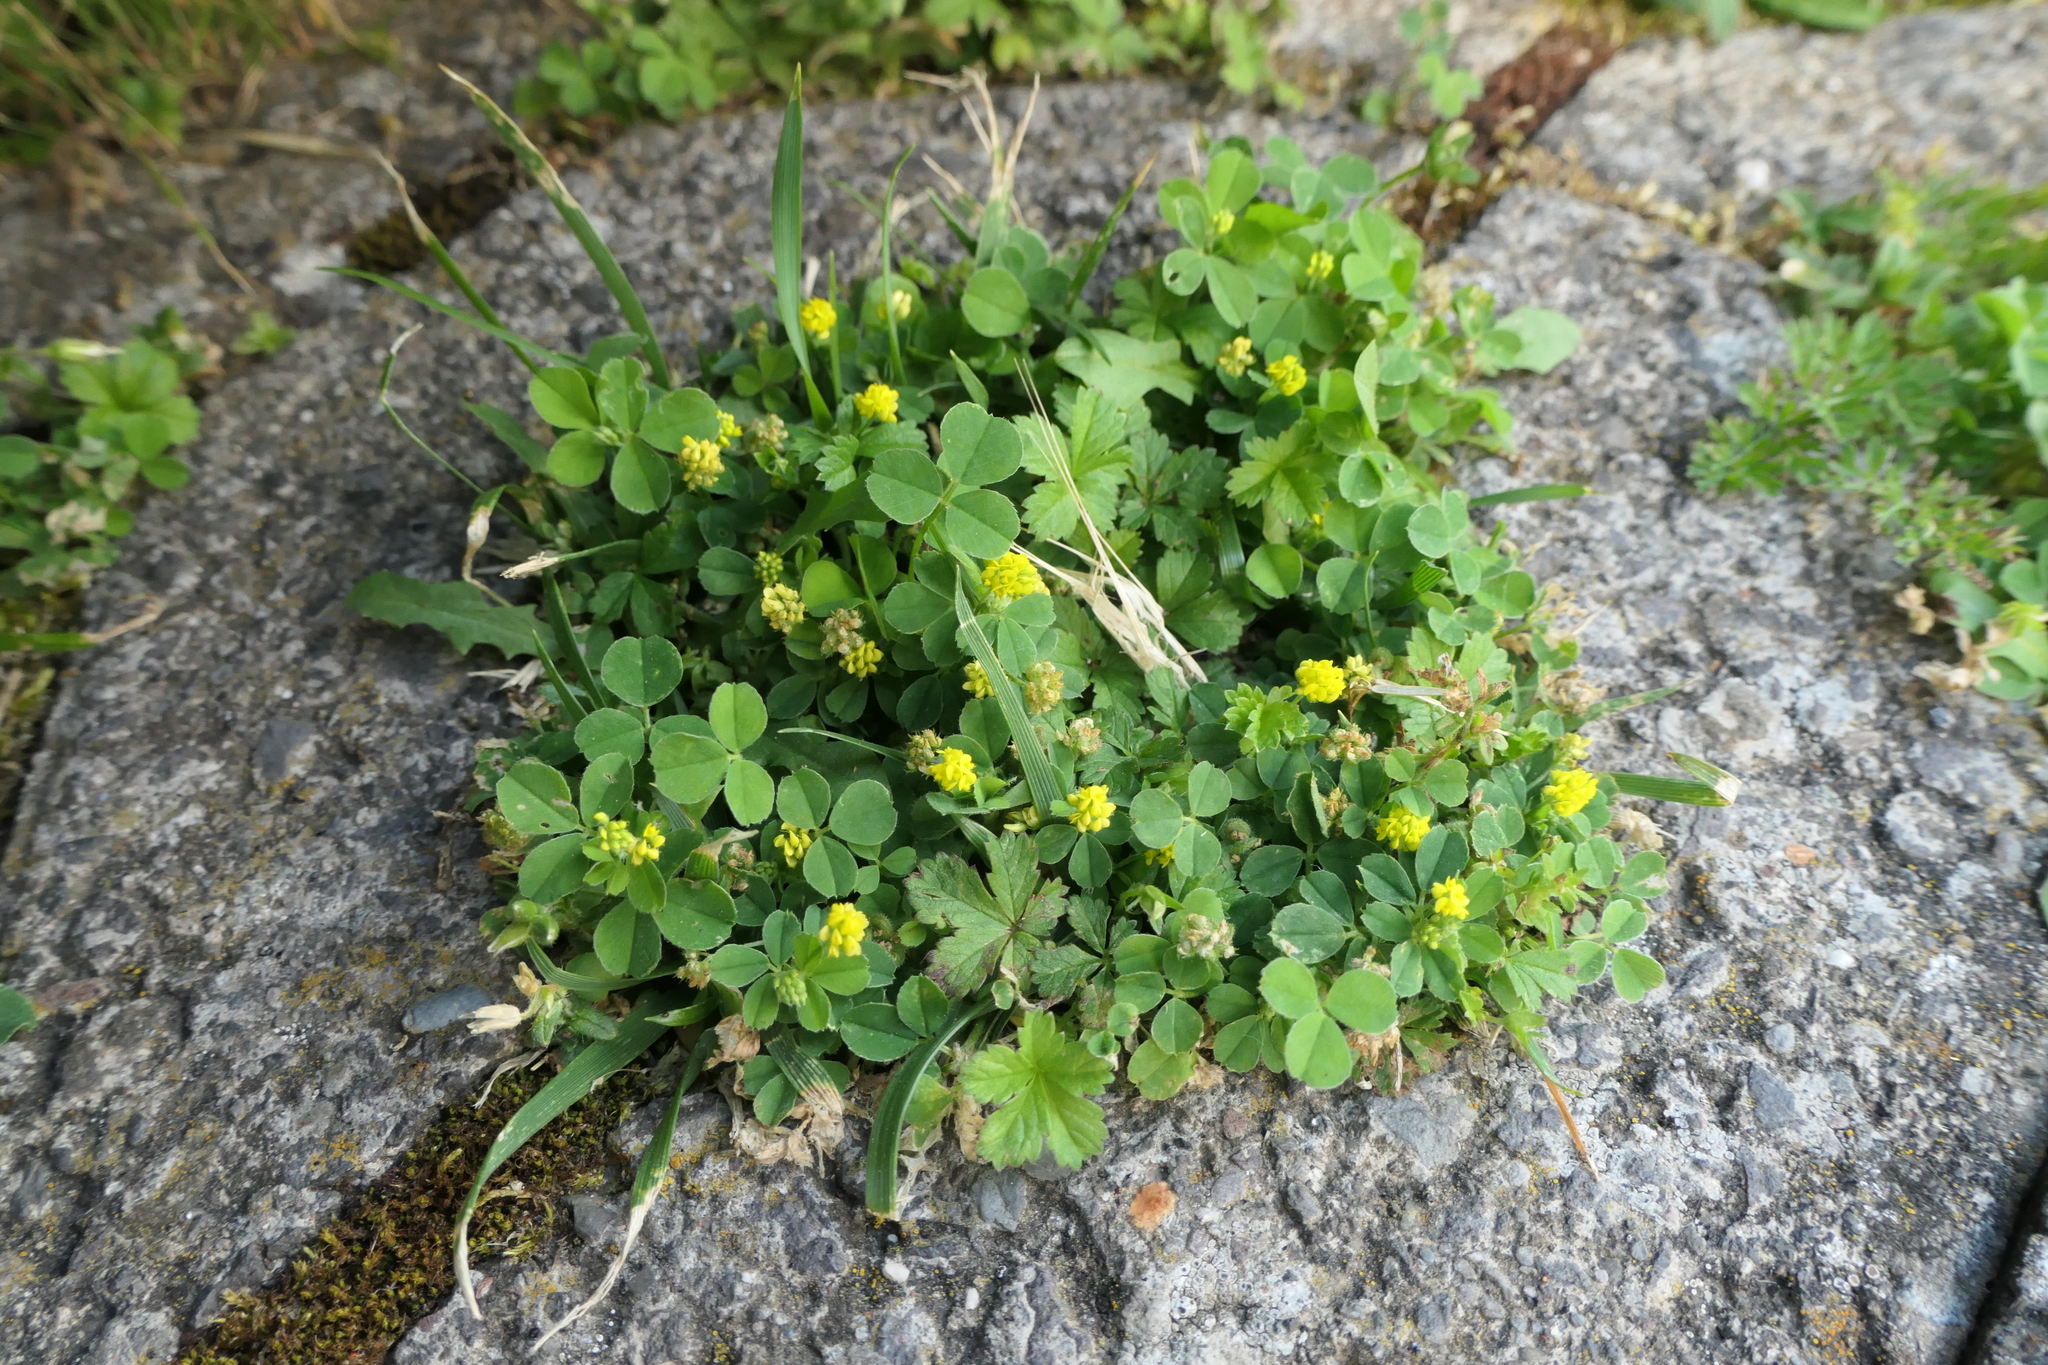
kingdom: Plantae
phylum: Tracheophyta
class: Magnoliopsida
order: Fabales
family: Fabaceae
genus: Medicago
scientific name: Medicago lupulina
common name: Black medick
